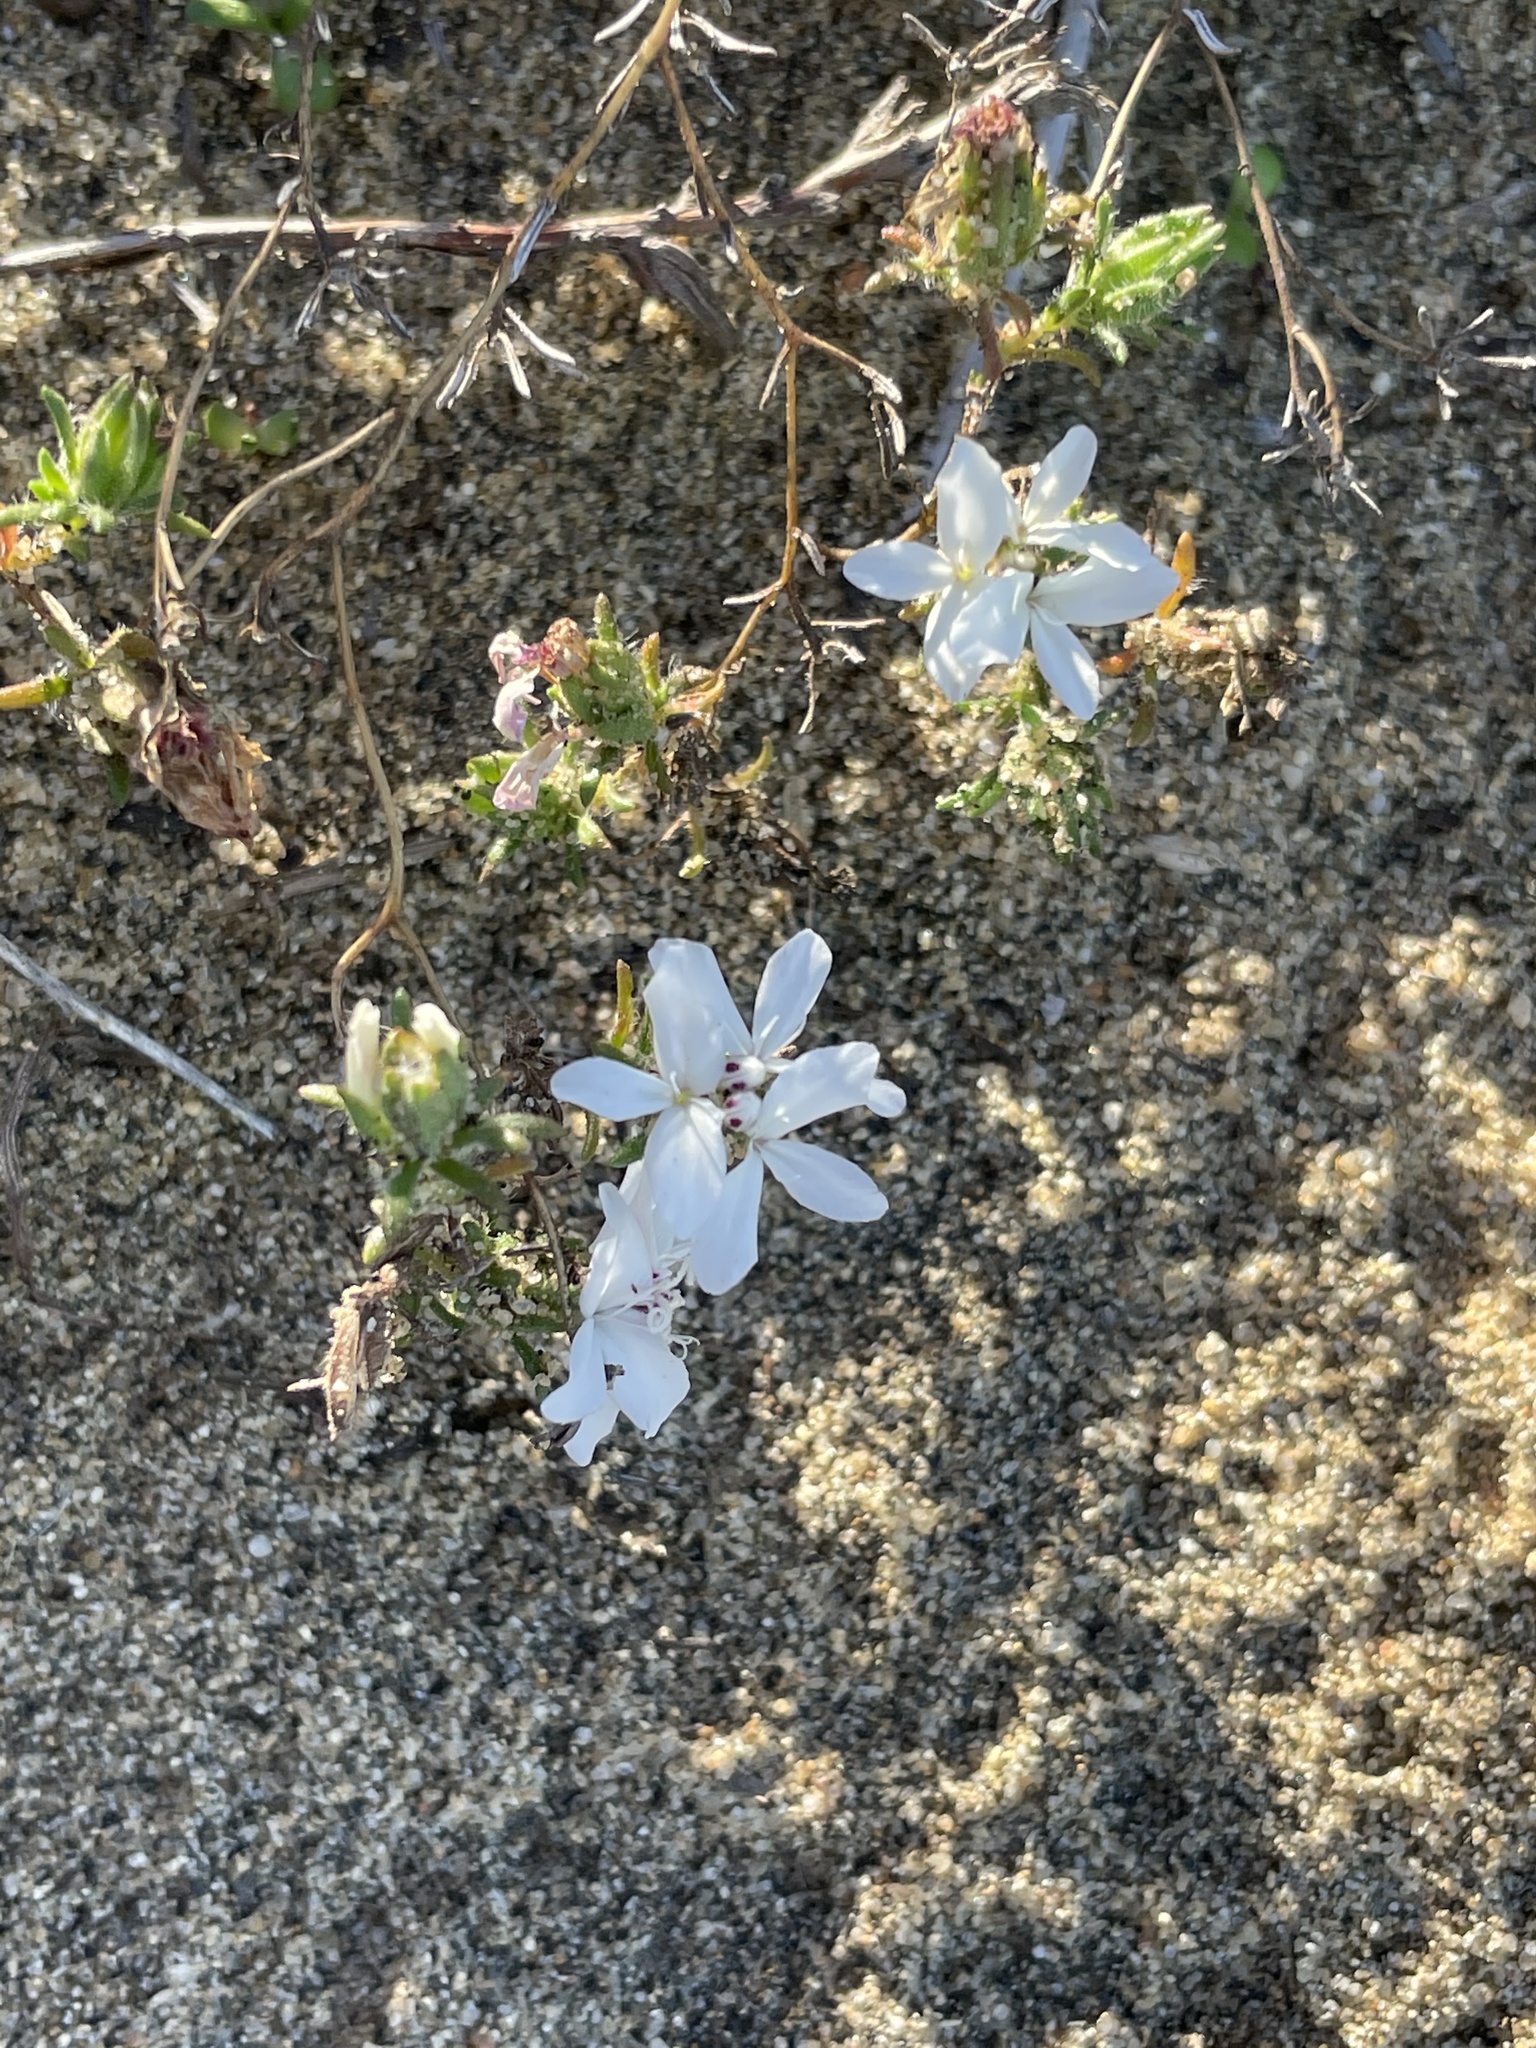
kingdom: Plantae
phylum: Tracheophyta
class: Magnoliopsida
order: Asterales
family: Asteraceae
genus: Osmadenia
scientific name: Osmadenia tenella
